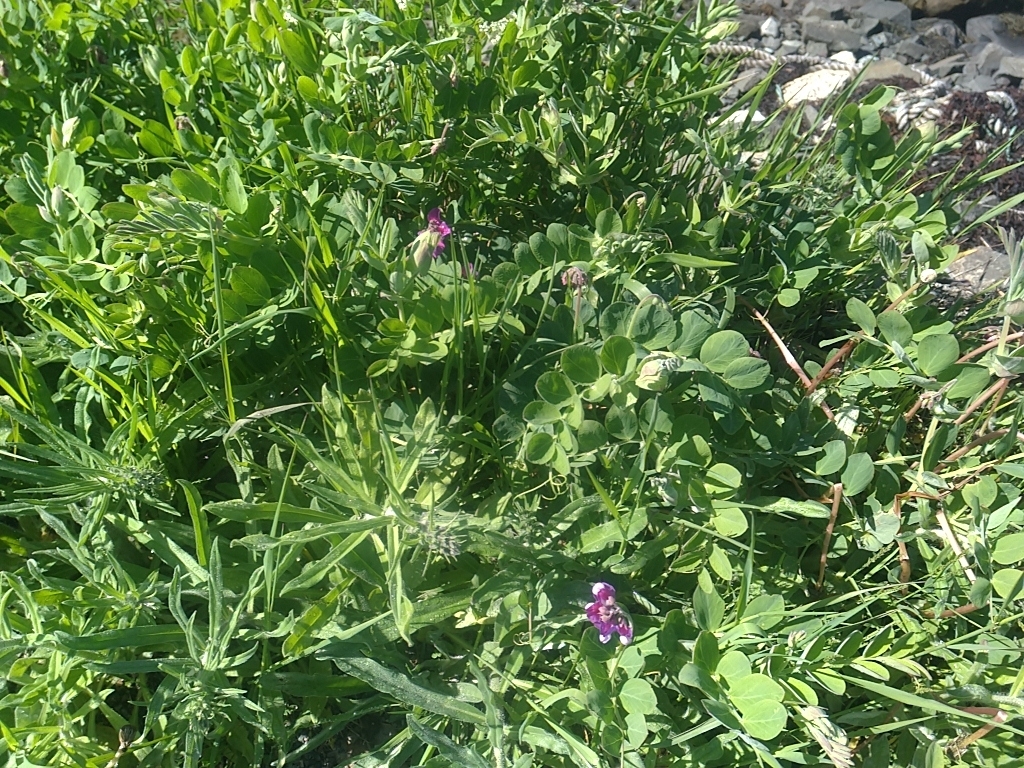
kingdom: Plantae
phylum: Tracheophyta
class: Magnoliopsida
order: Fabales
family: Fabaceae
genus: Lathyrus
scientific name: Lathyrus japonicus
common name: Sea pea
